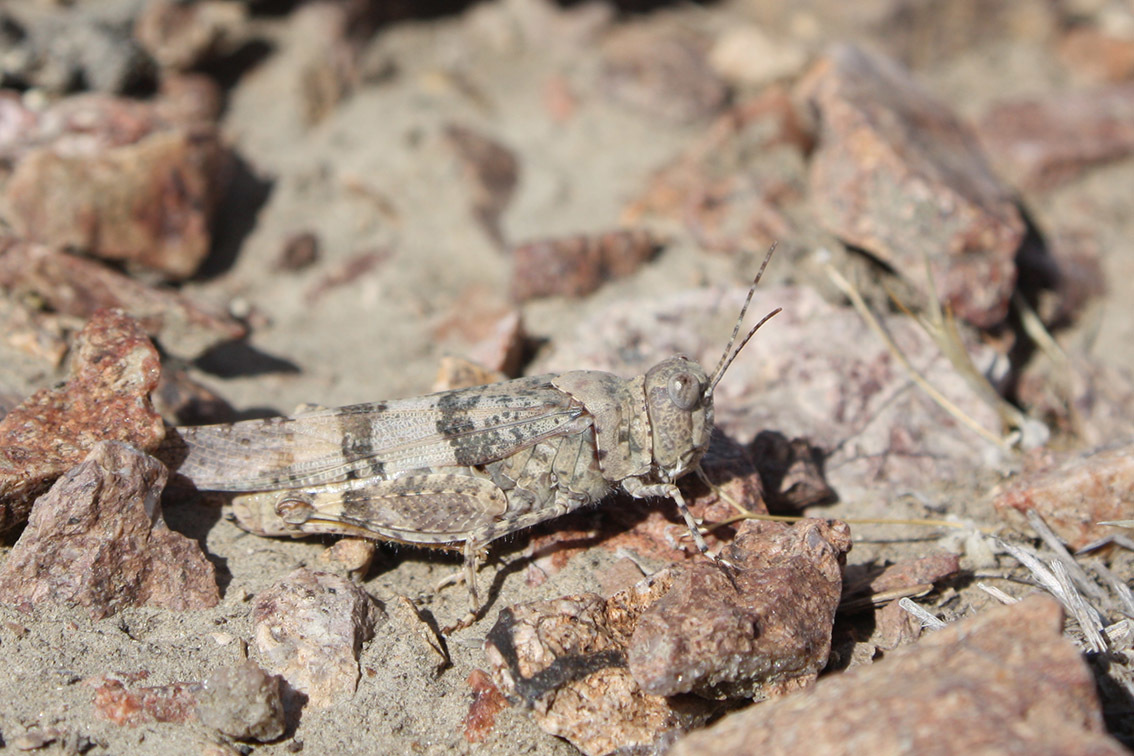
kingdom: Animalia
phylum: Arthropoda
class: Insecta
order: Orthoptera
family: Acrididae
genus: Trimerotropis
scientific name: Trimerotropis pallidipennis
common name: Pallid-winged grasshopper
